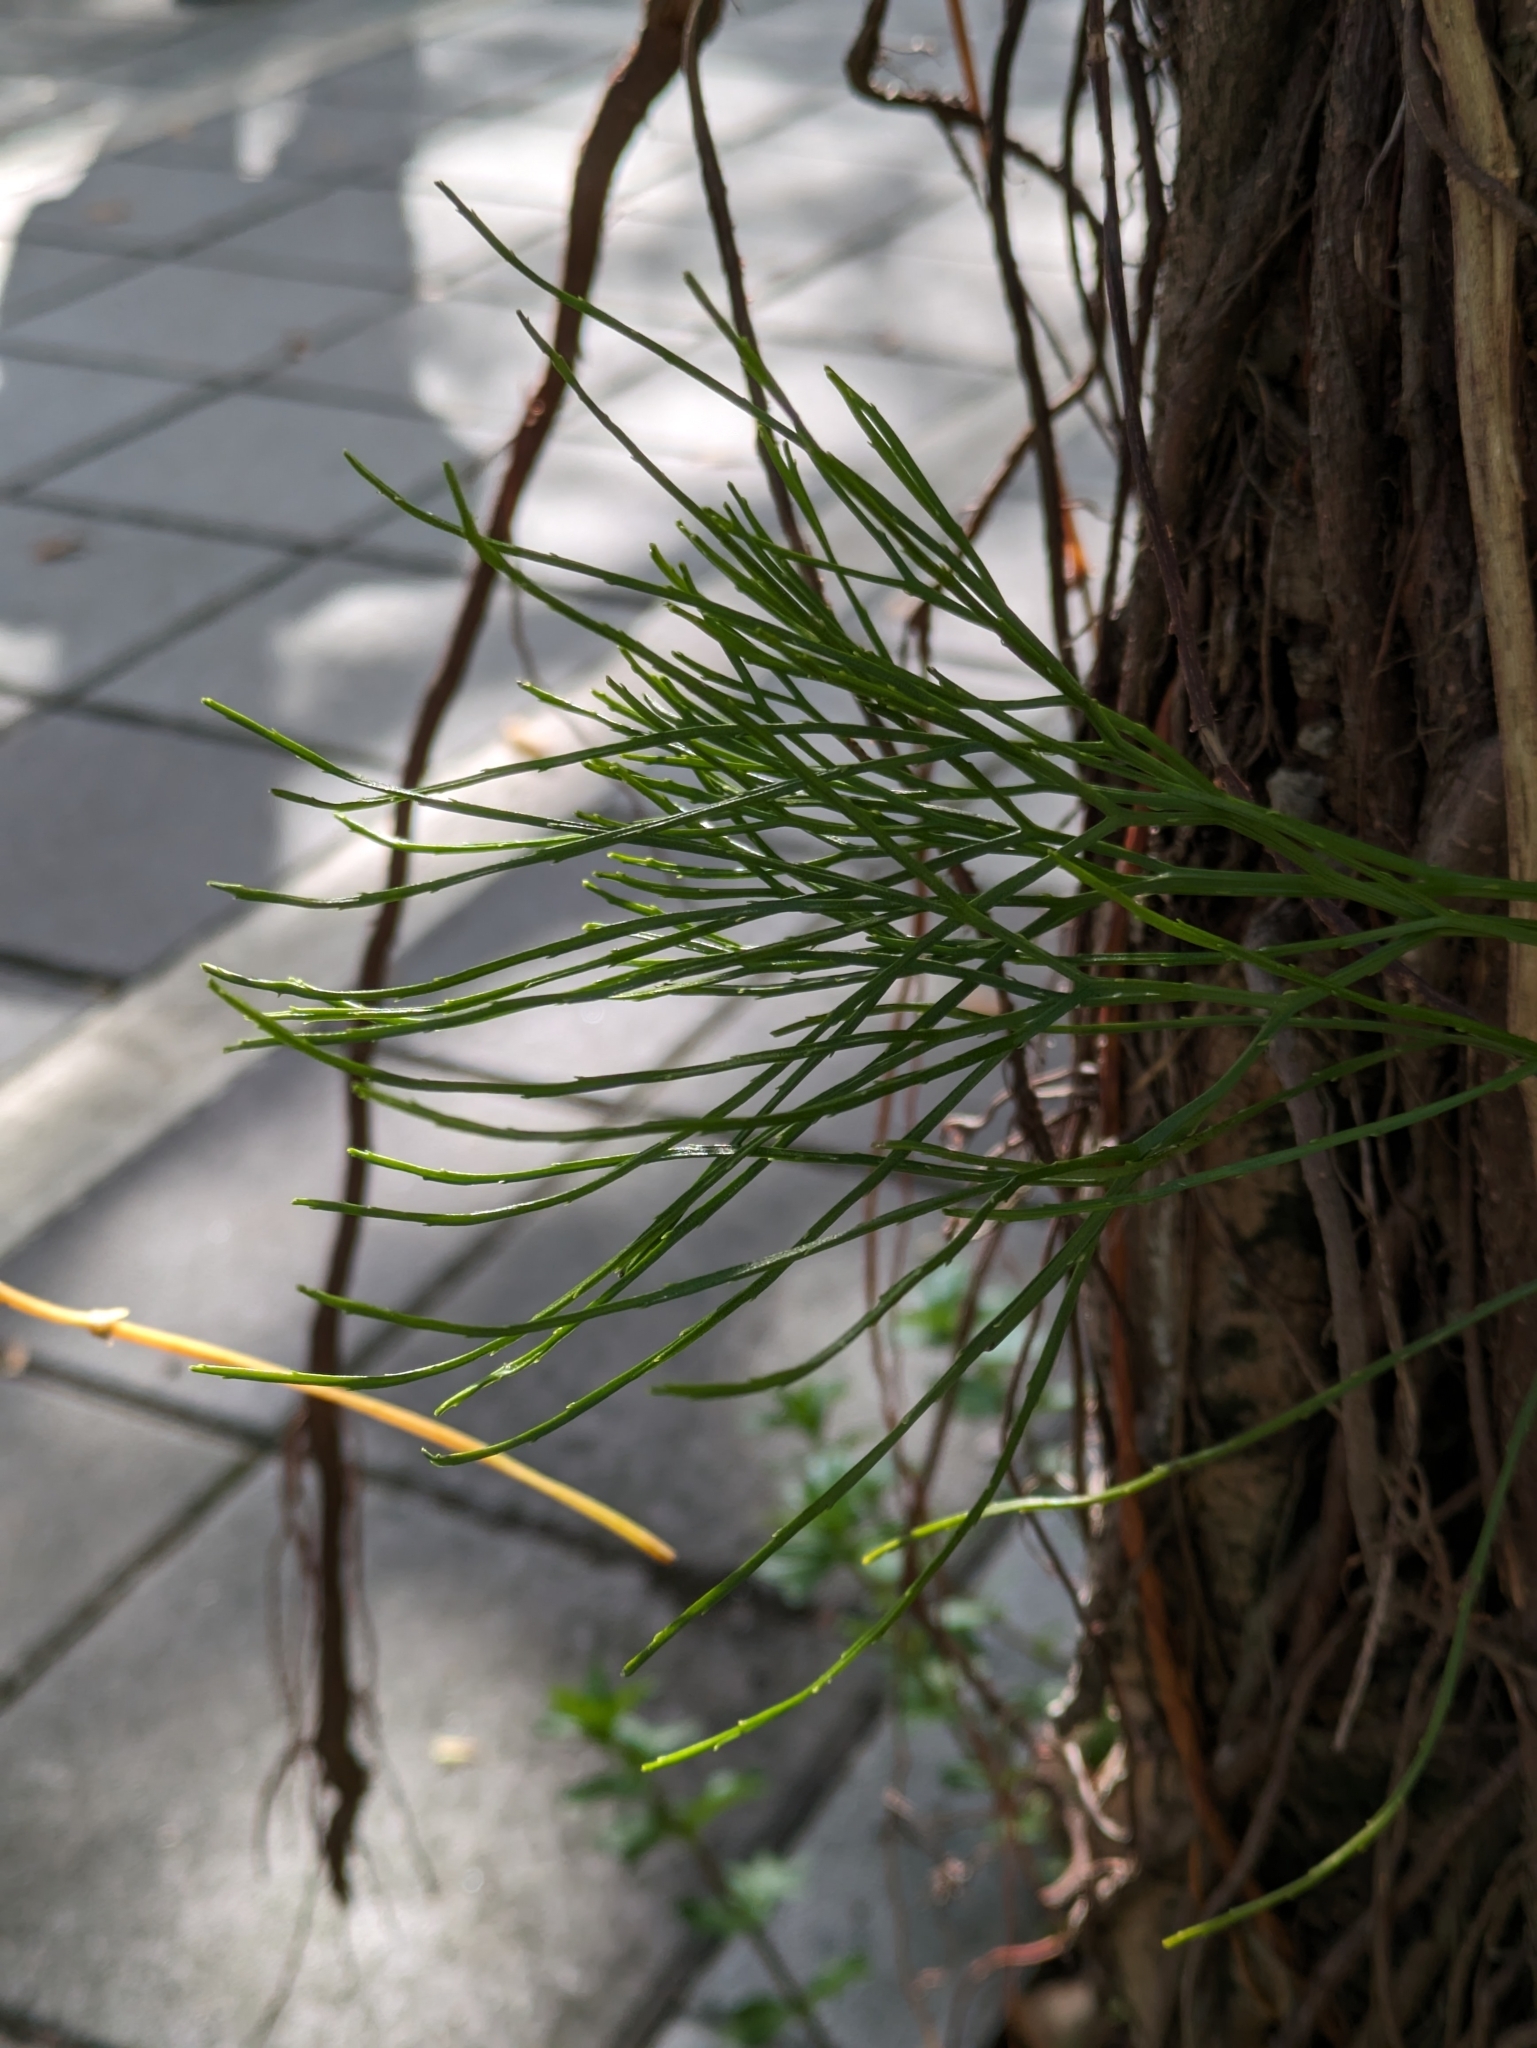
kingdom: Plantae
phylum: Tracheophyta
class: Polypodiopsida
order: Psilotales
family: Psilotaceae
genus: Psilotum
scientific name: Psilotum nudum
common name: Skeleton fork fern
